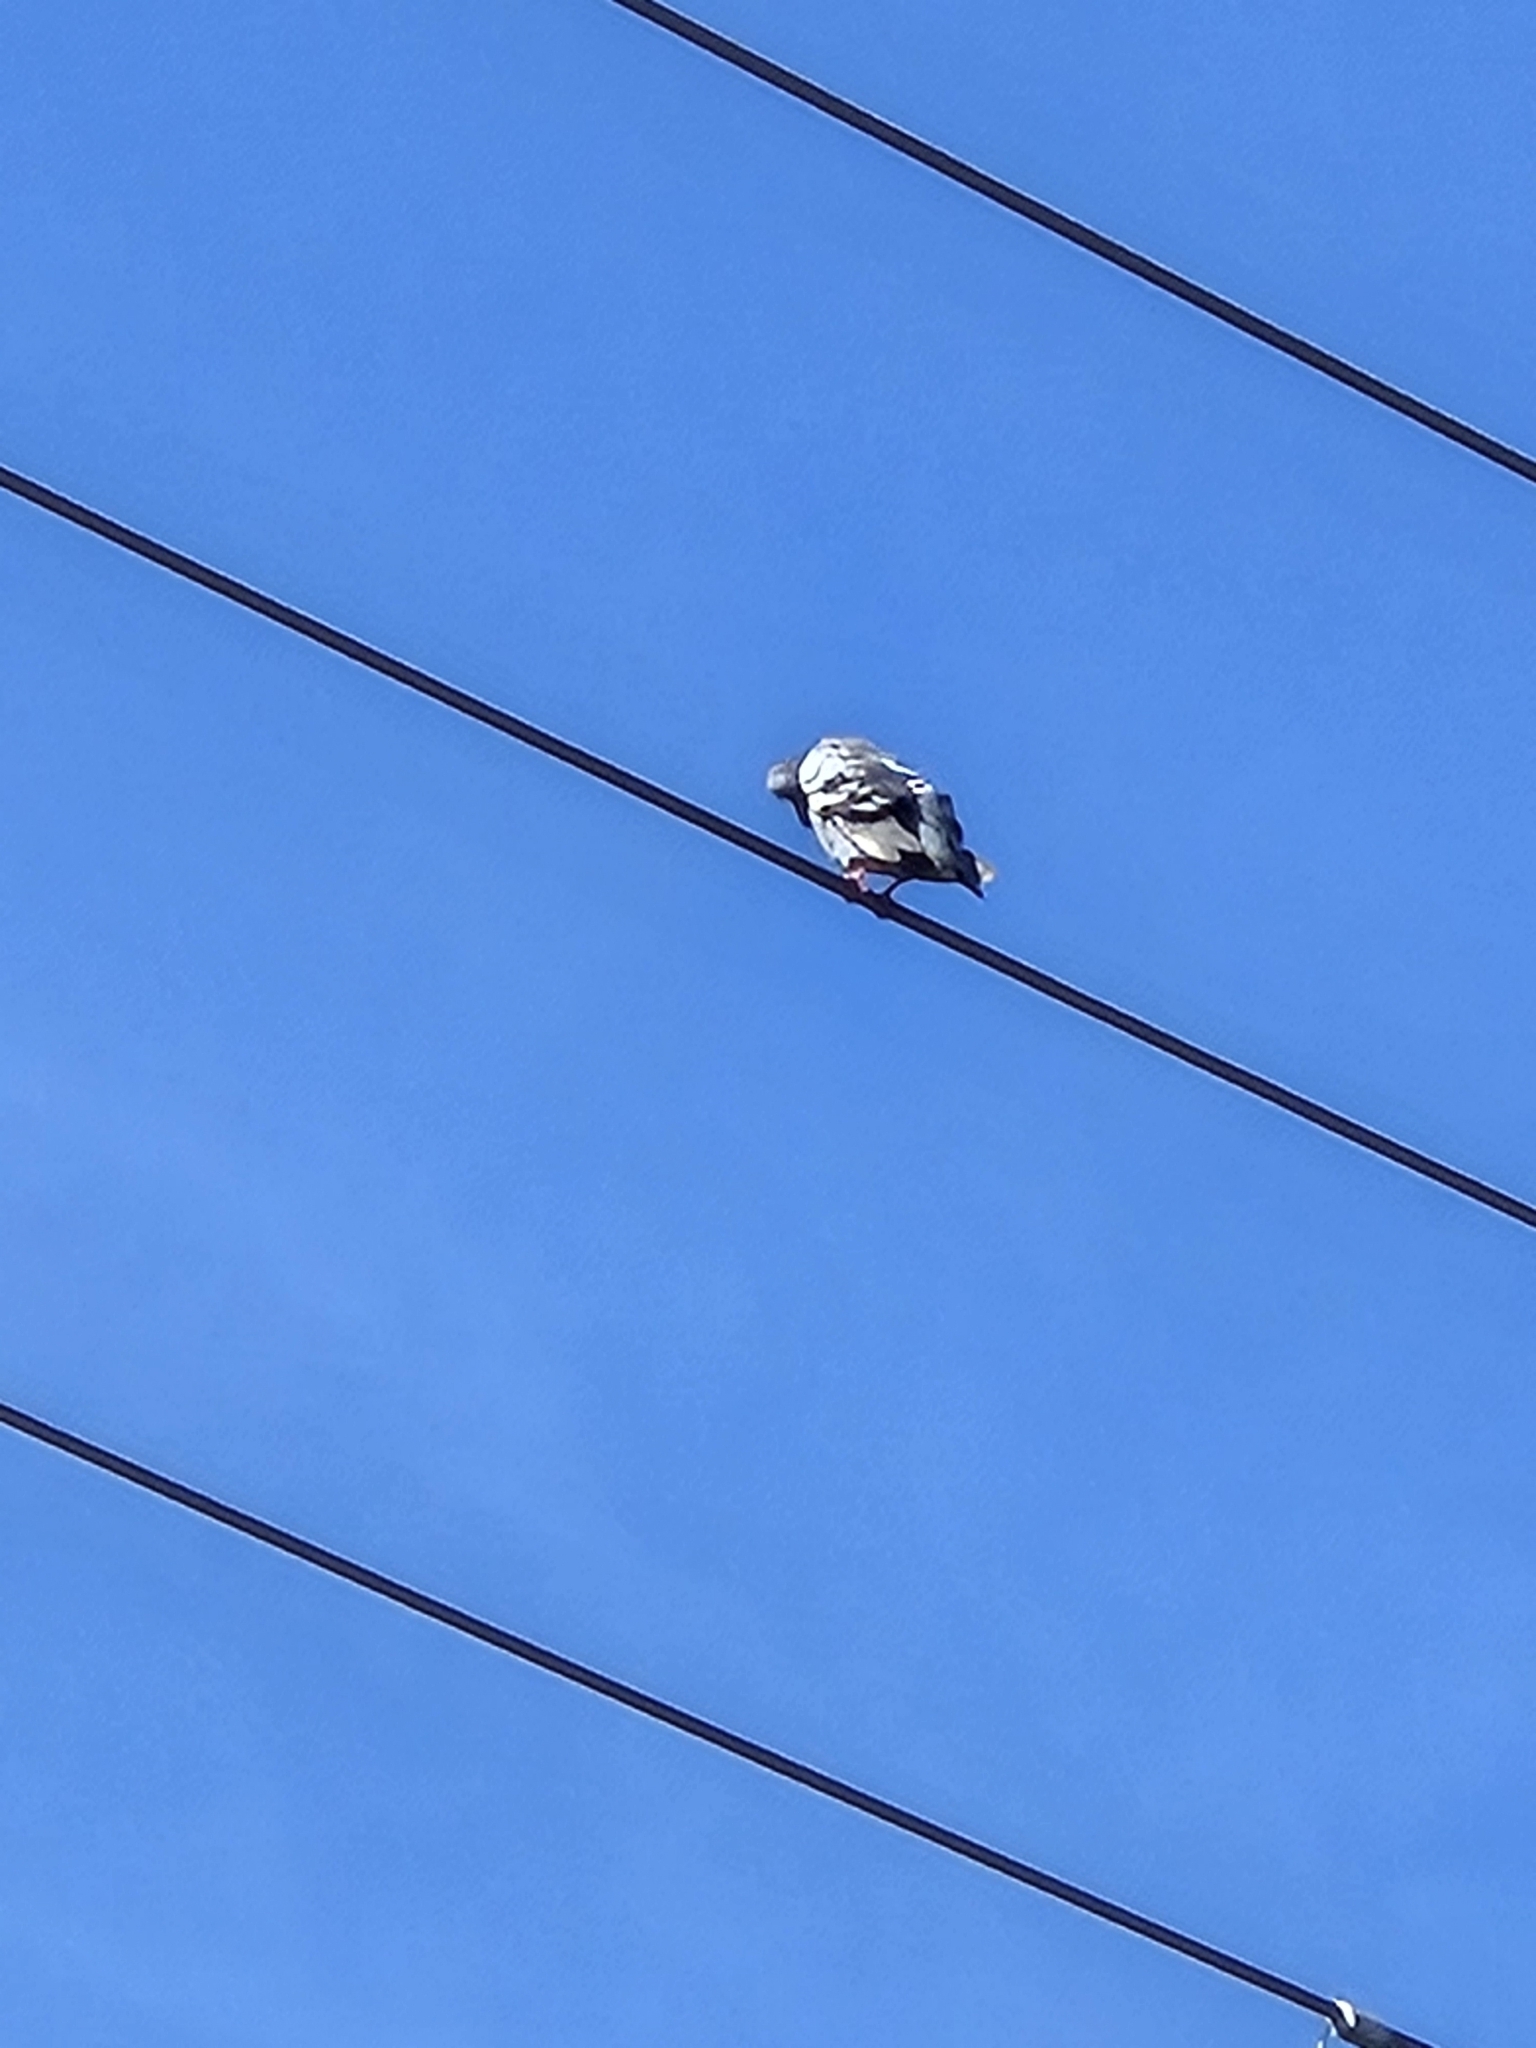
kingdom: Animalia
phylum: Chordata
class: Aves
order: Columbiformes
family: Columbidae
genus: Columba
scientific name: Columba livia
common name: Rock pigeon
